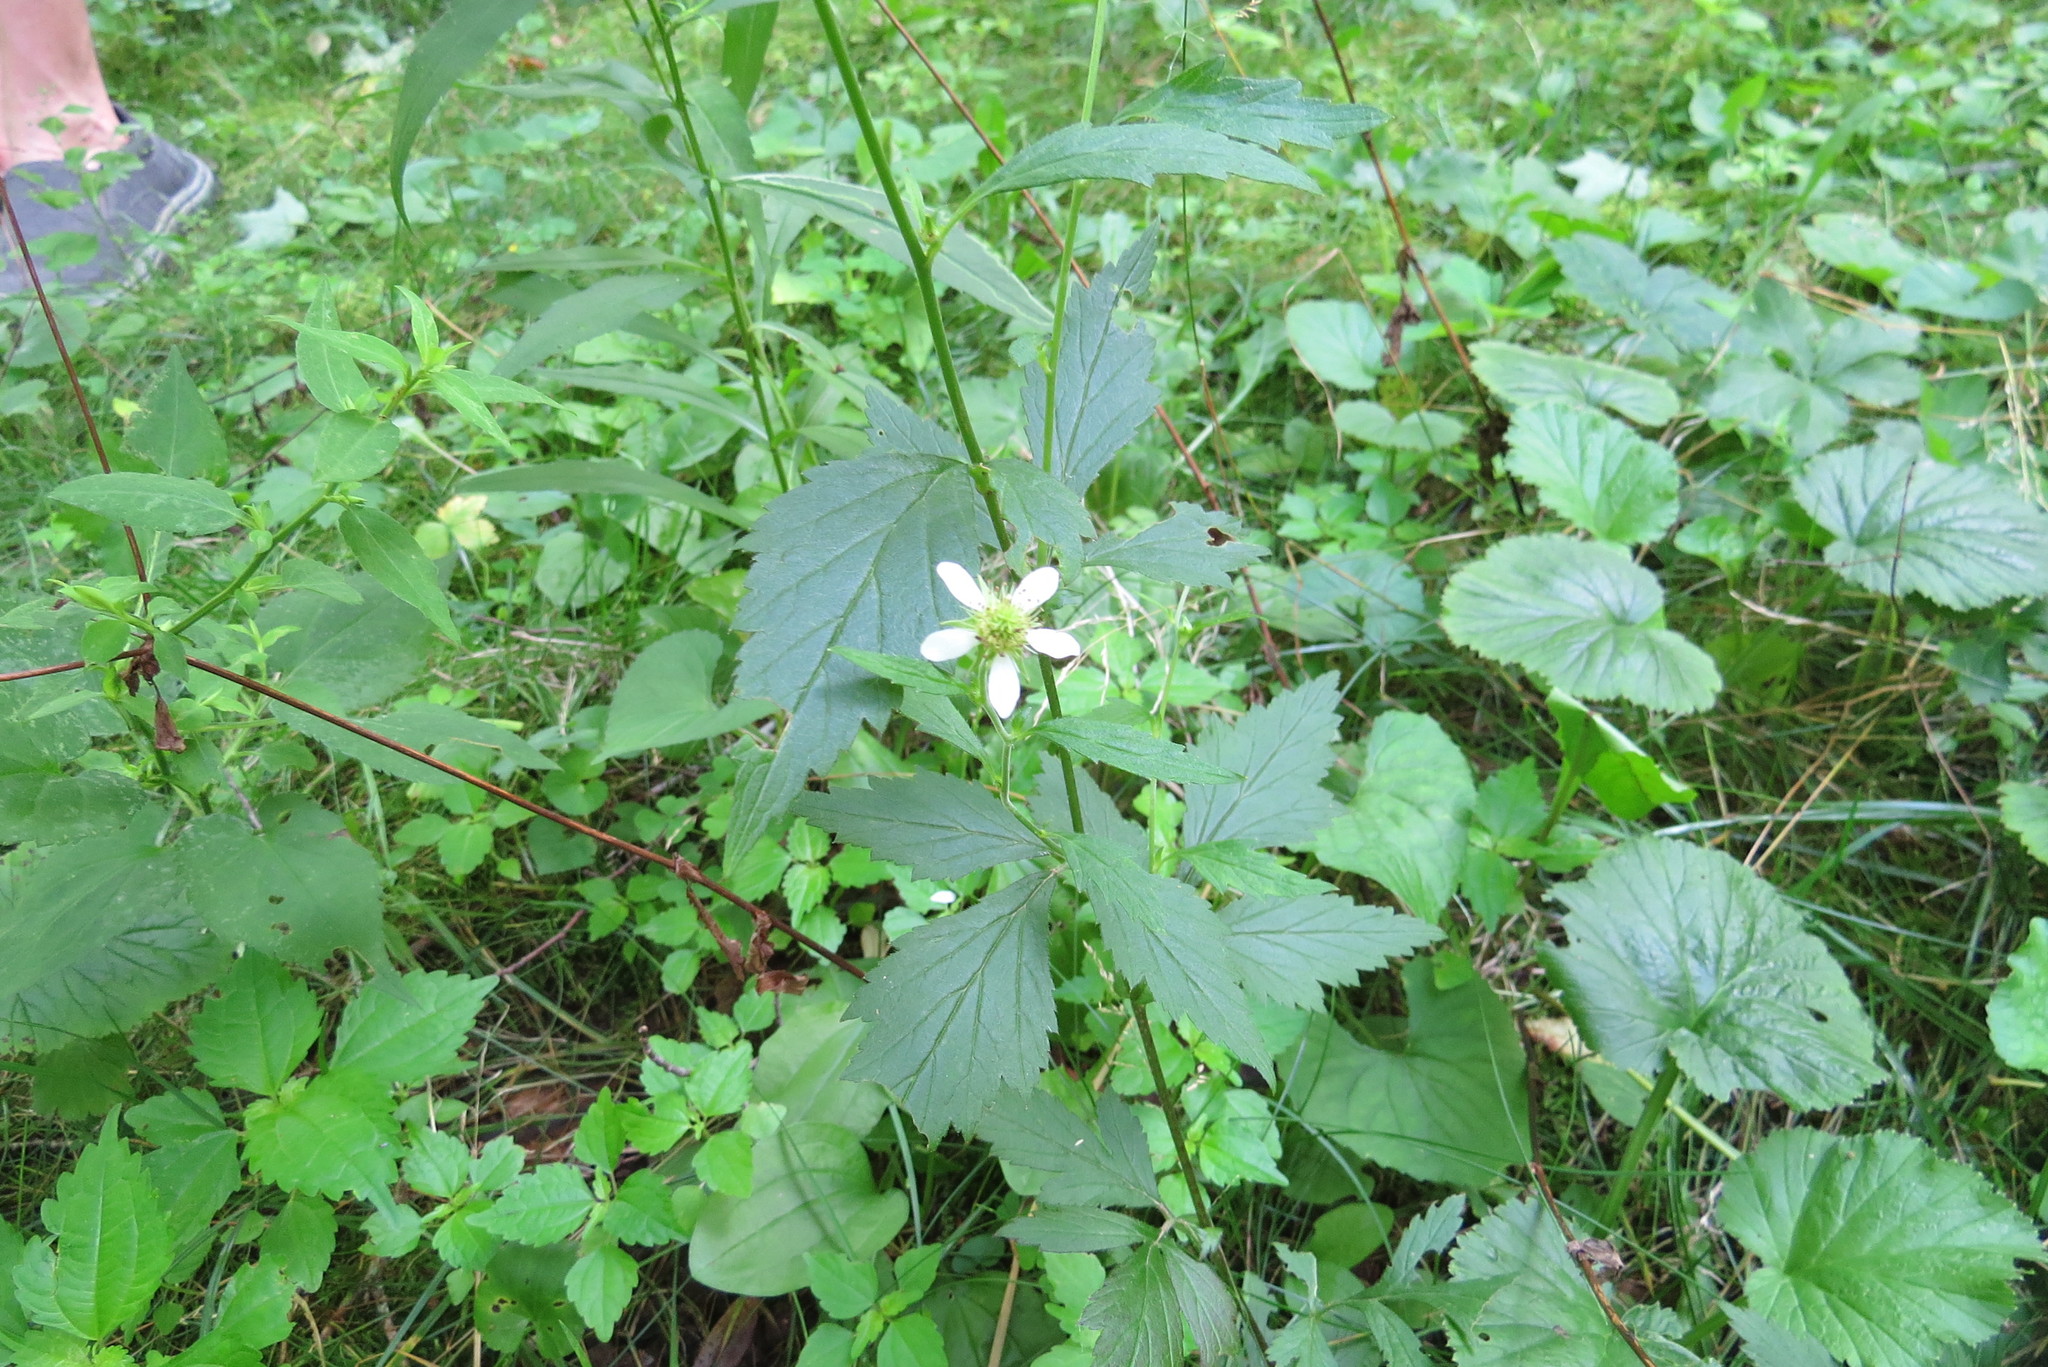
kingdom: Plantae
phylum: Tracheophyta
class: Magnoliopsida
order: Rosales
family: Rosaceae
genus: Geum
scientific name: Geum canadense
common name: White avens
